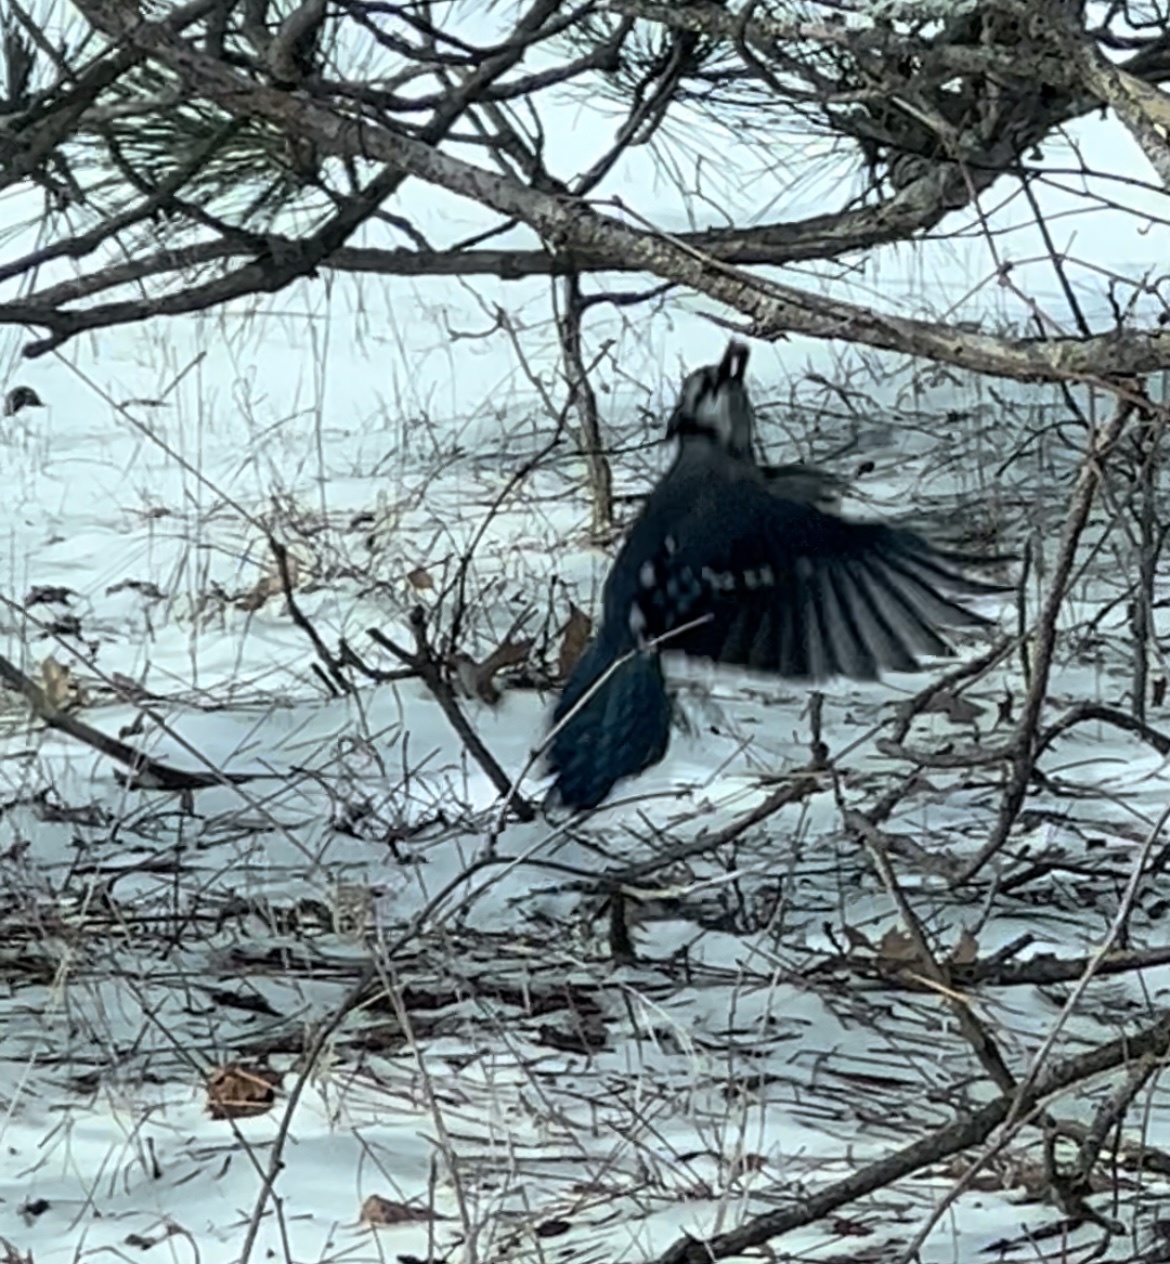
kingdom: Animalia
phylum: Chordata
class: Aves
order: Passeriformes
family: Corvidae
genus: Cyanocitta
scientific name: Cyanocitta cristata
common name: Blue jay
